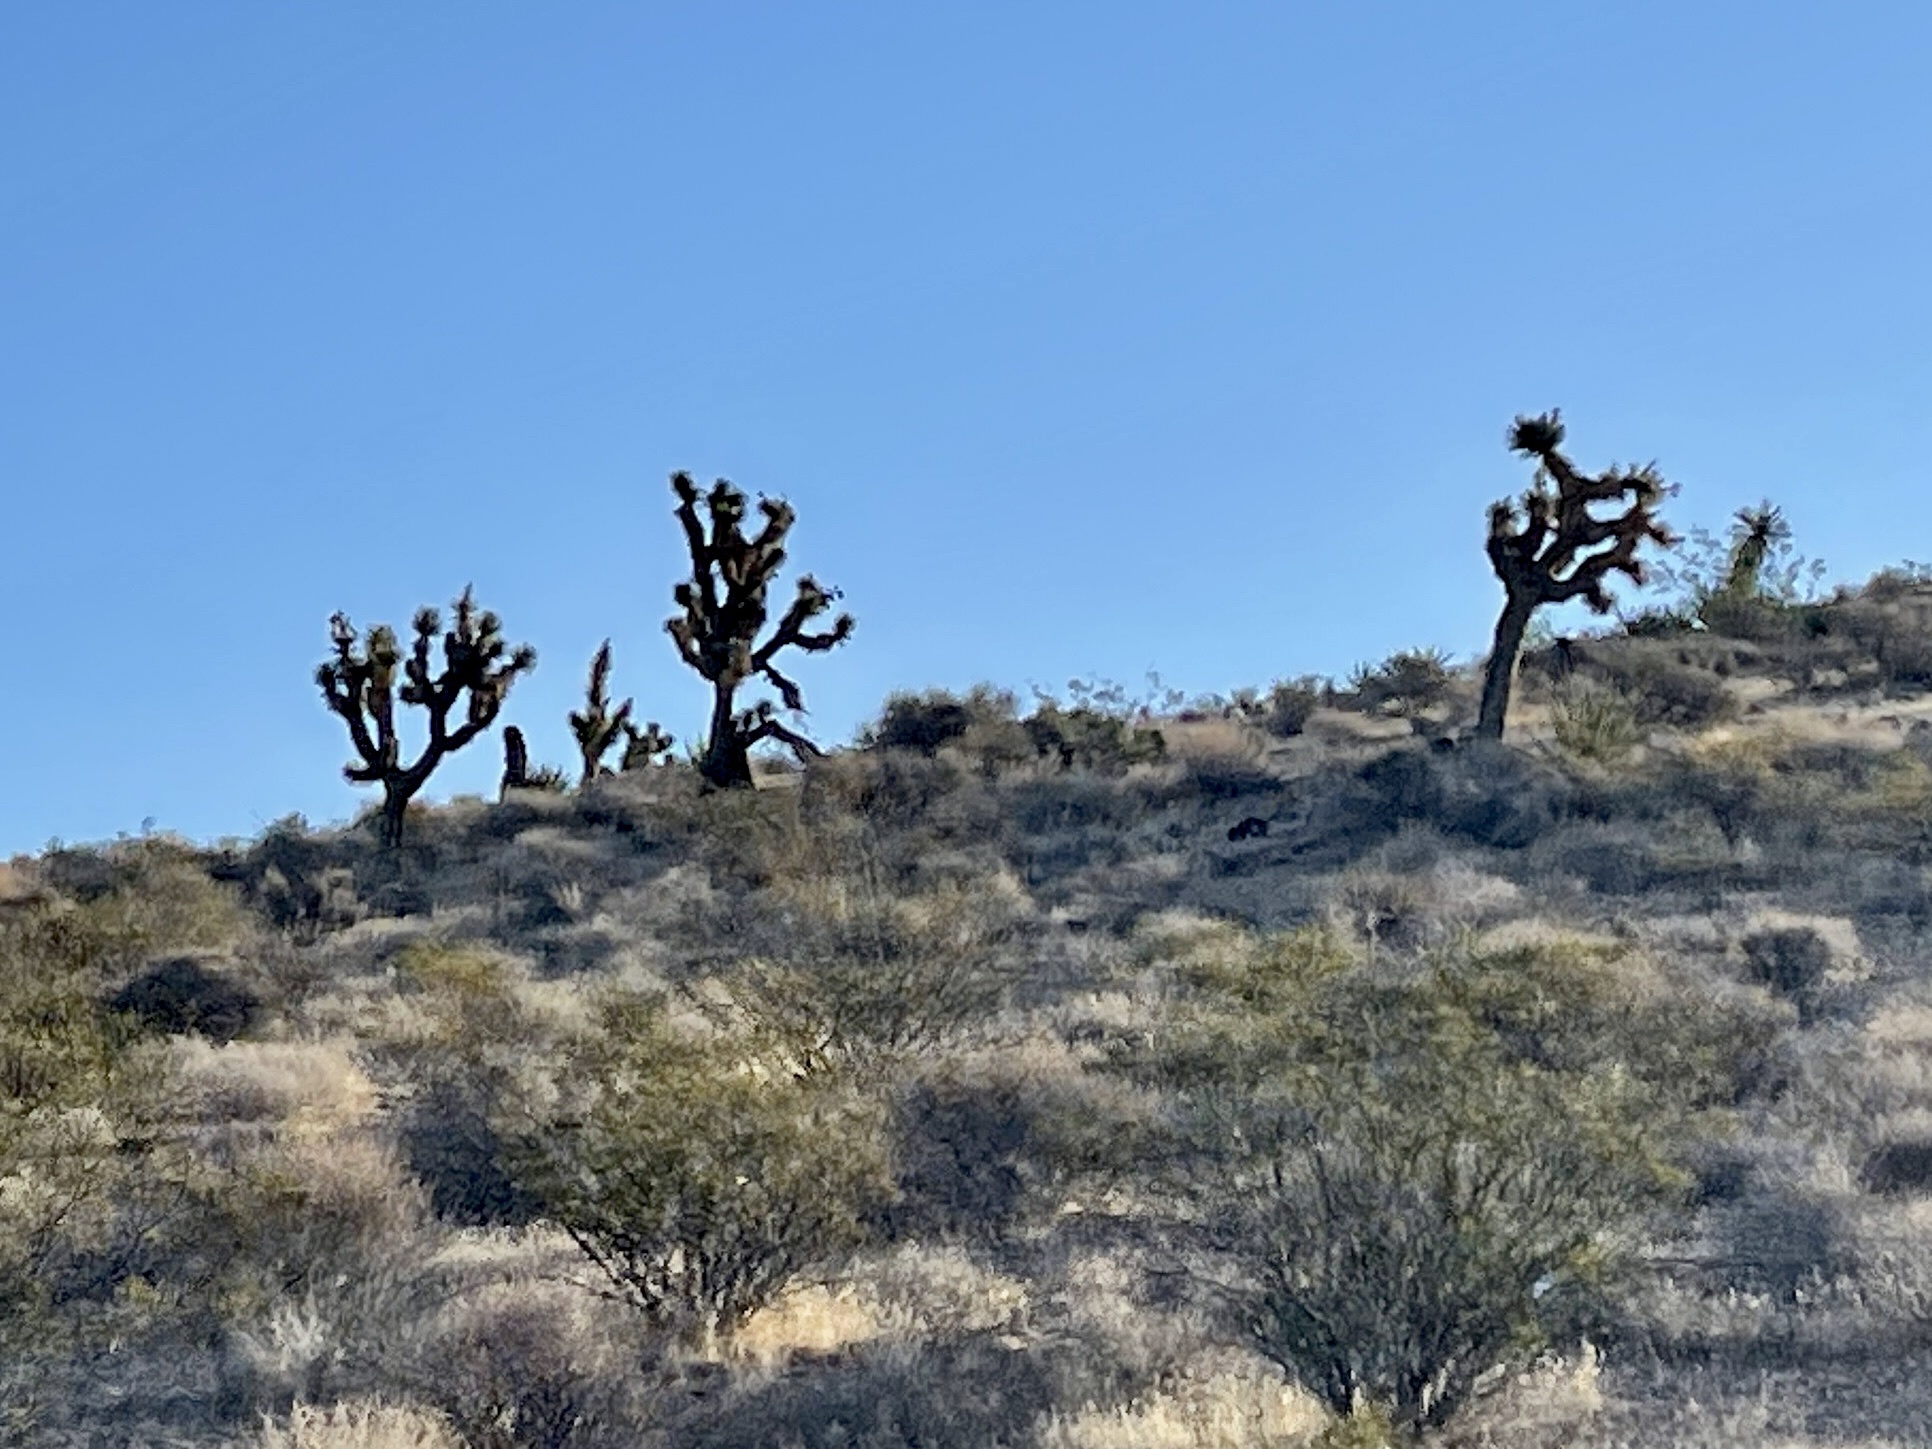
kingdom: Plantae
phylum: Tracheophyta
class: Liliopsida
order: Asparagales
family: Asparagaceae
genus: Yucca
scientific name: Yucca brevifolia
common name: Joshua tree
